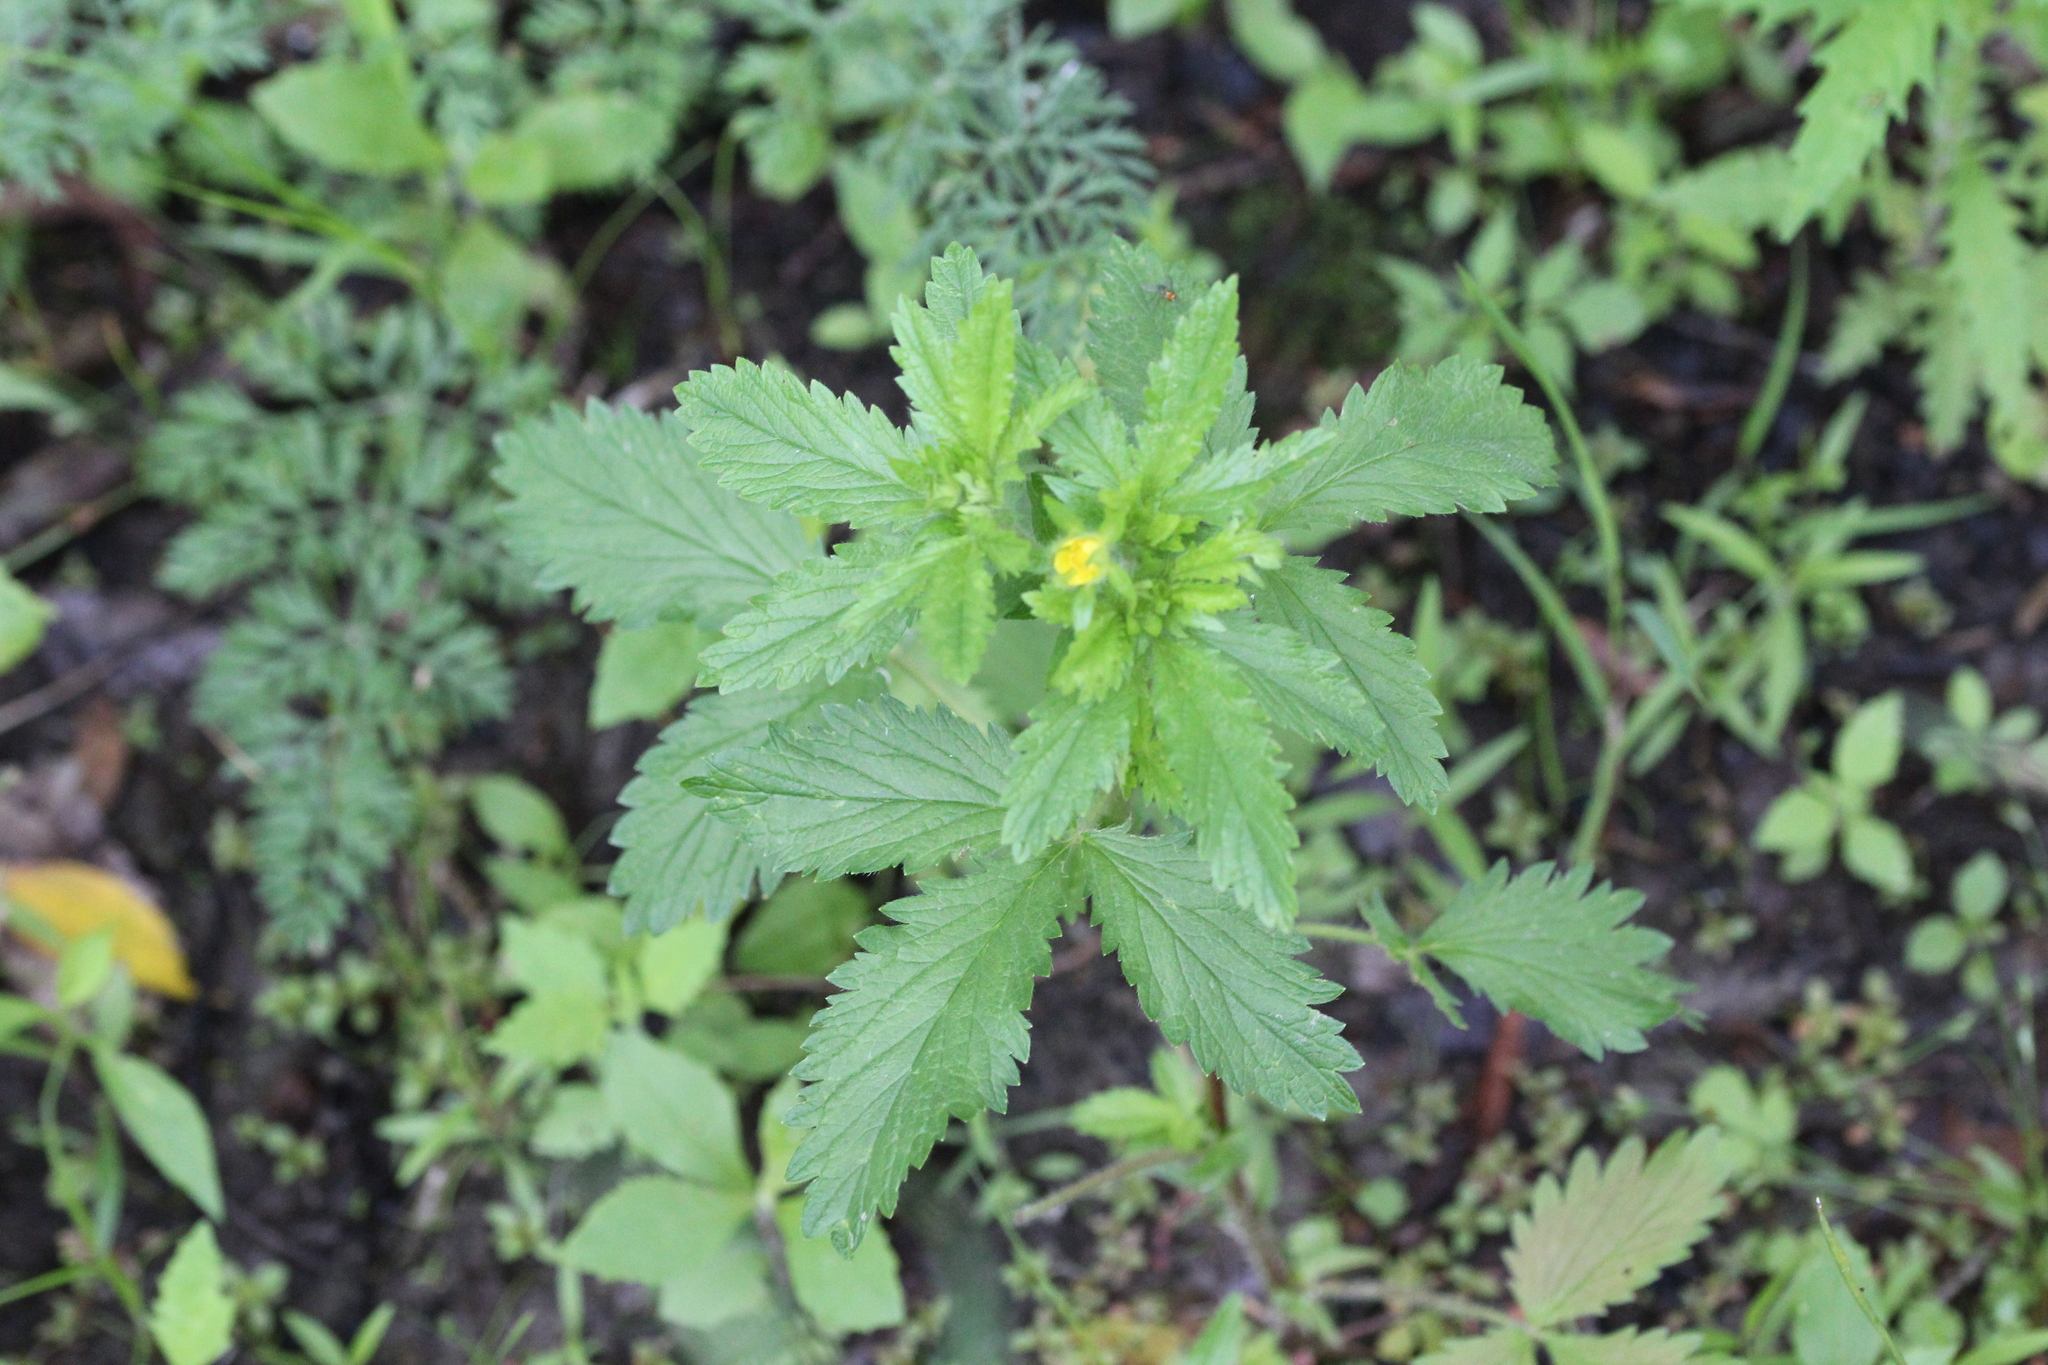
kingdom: Plantae
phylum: Tracheophyta
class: Magnoliopsida
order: Rosales
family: Rosaceae
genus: Potentilla
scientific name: Potentilla norvegica
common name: Ternate-leaved cinquefoil
